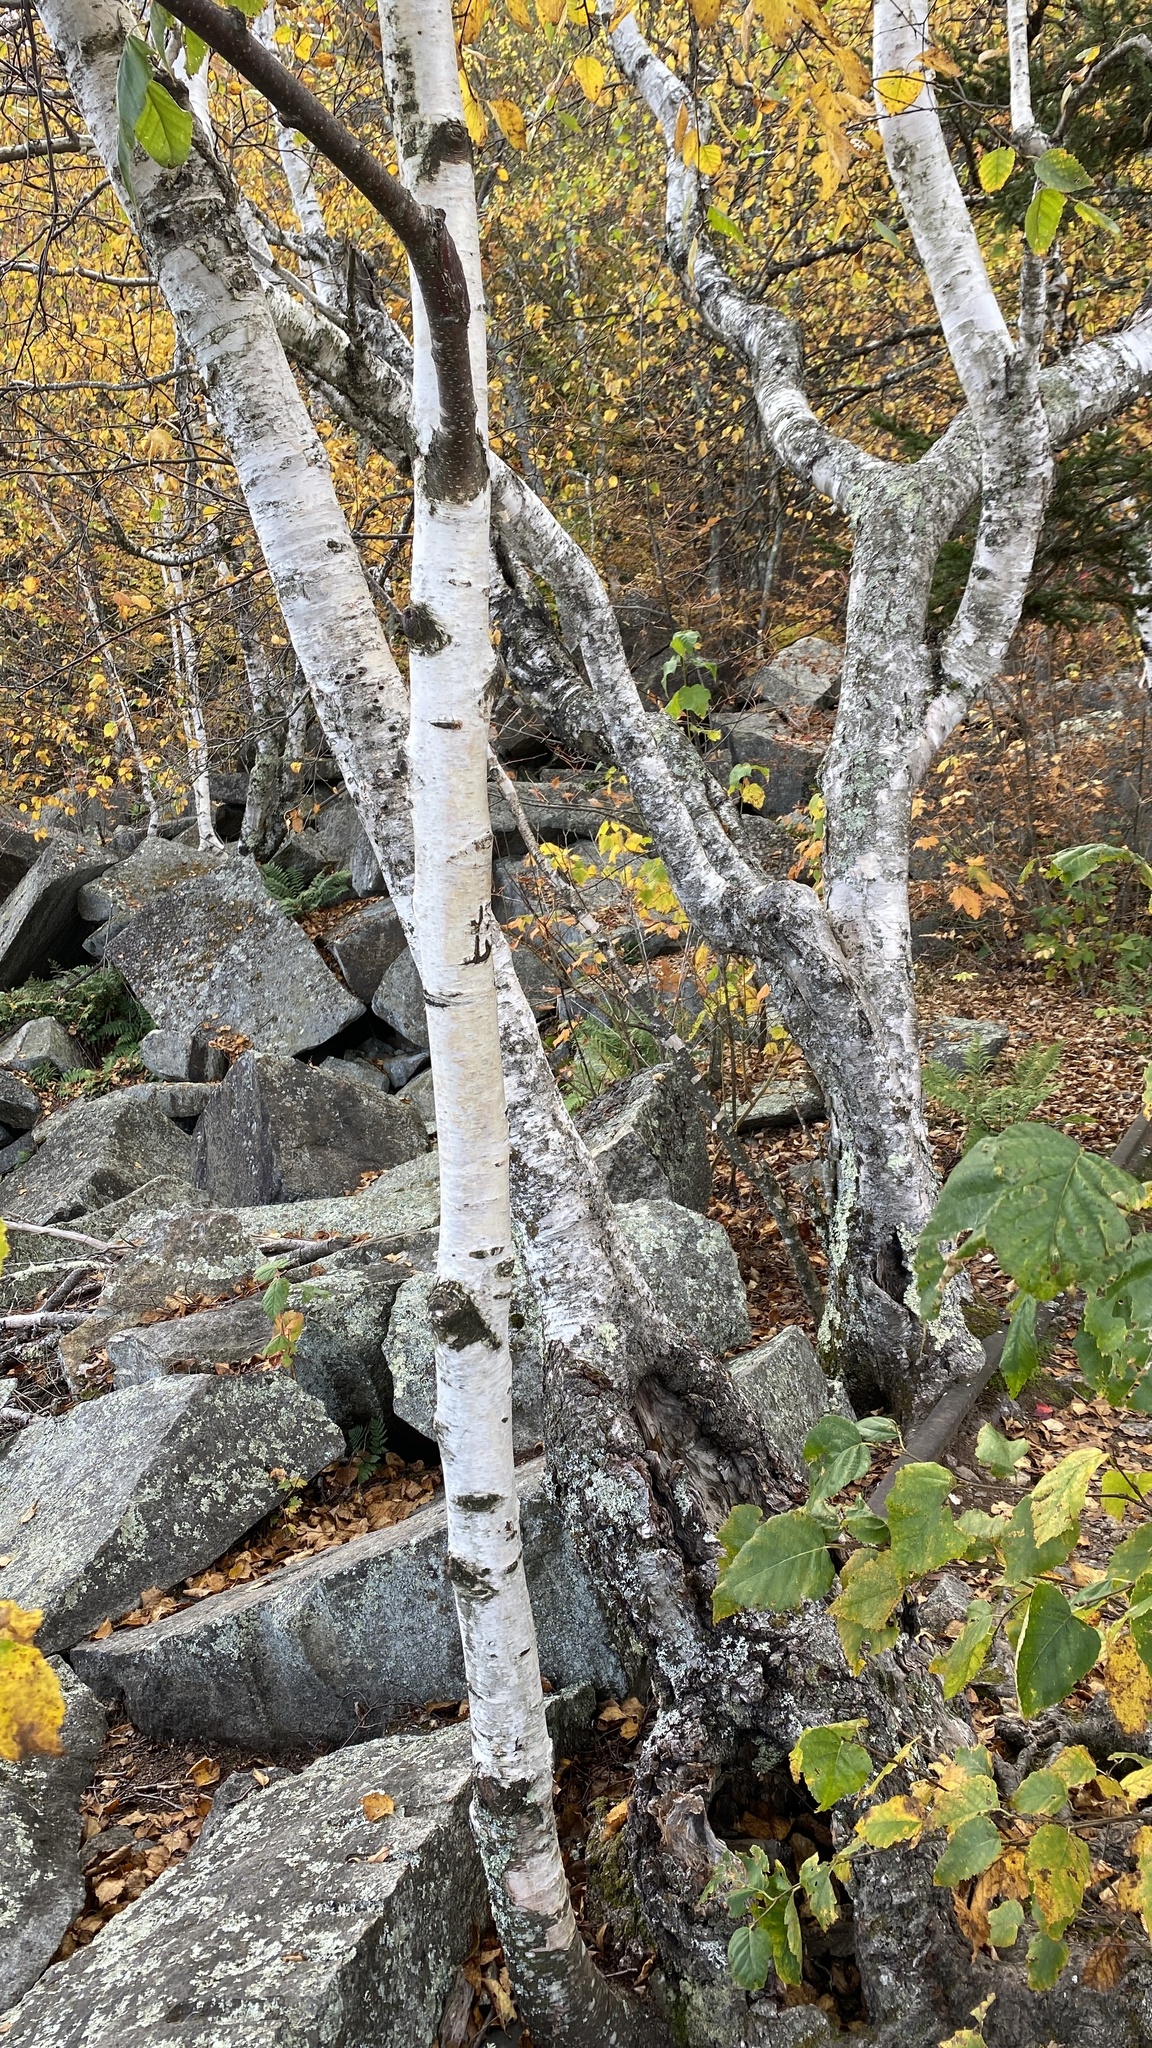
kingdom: Plantae
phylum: Tracheophyta
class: Magnoliopsida
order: Fagales
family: Betulaceae
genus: Betula
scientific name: Betula papyrifera
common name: Paper birch
